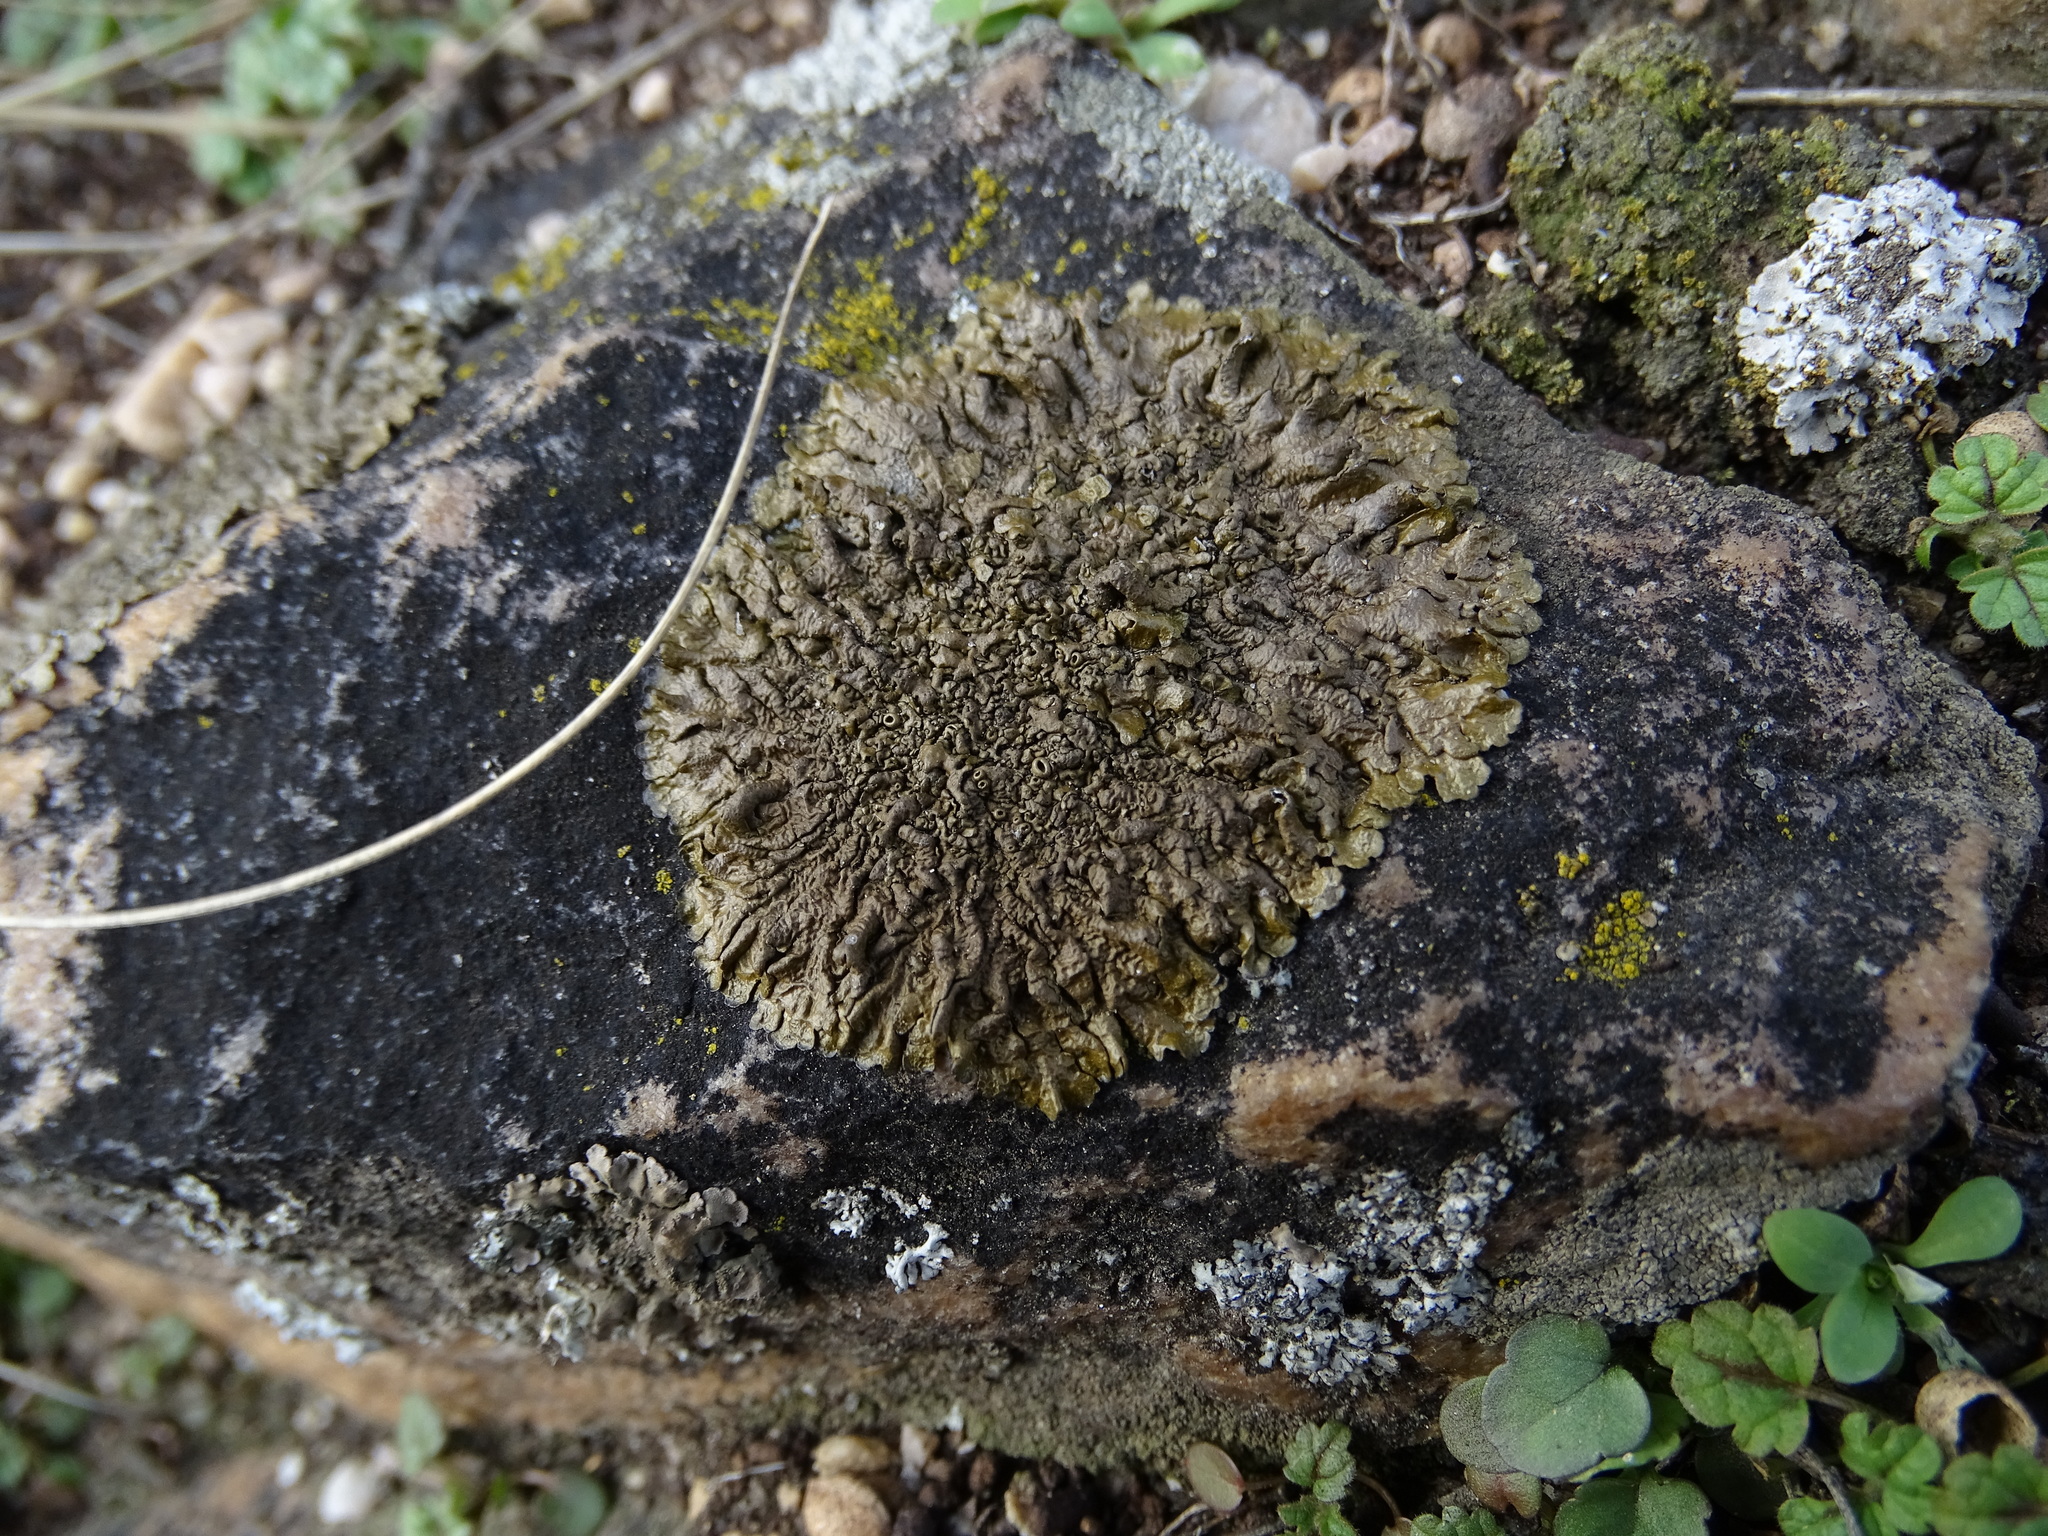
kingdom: Fungi
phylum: Ascomycota
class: Lecanoromycetes
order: Lecanorales
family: Parmeliaceae
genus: Xanthoparmelia
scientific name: Xanthoparmelia pulla
